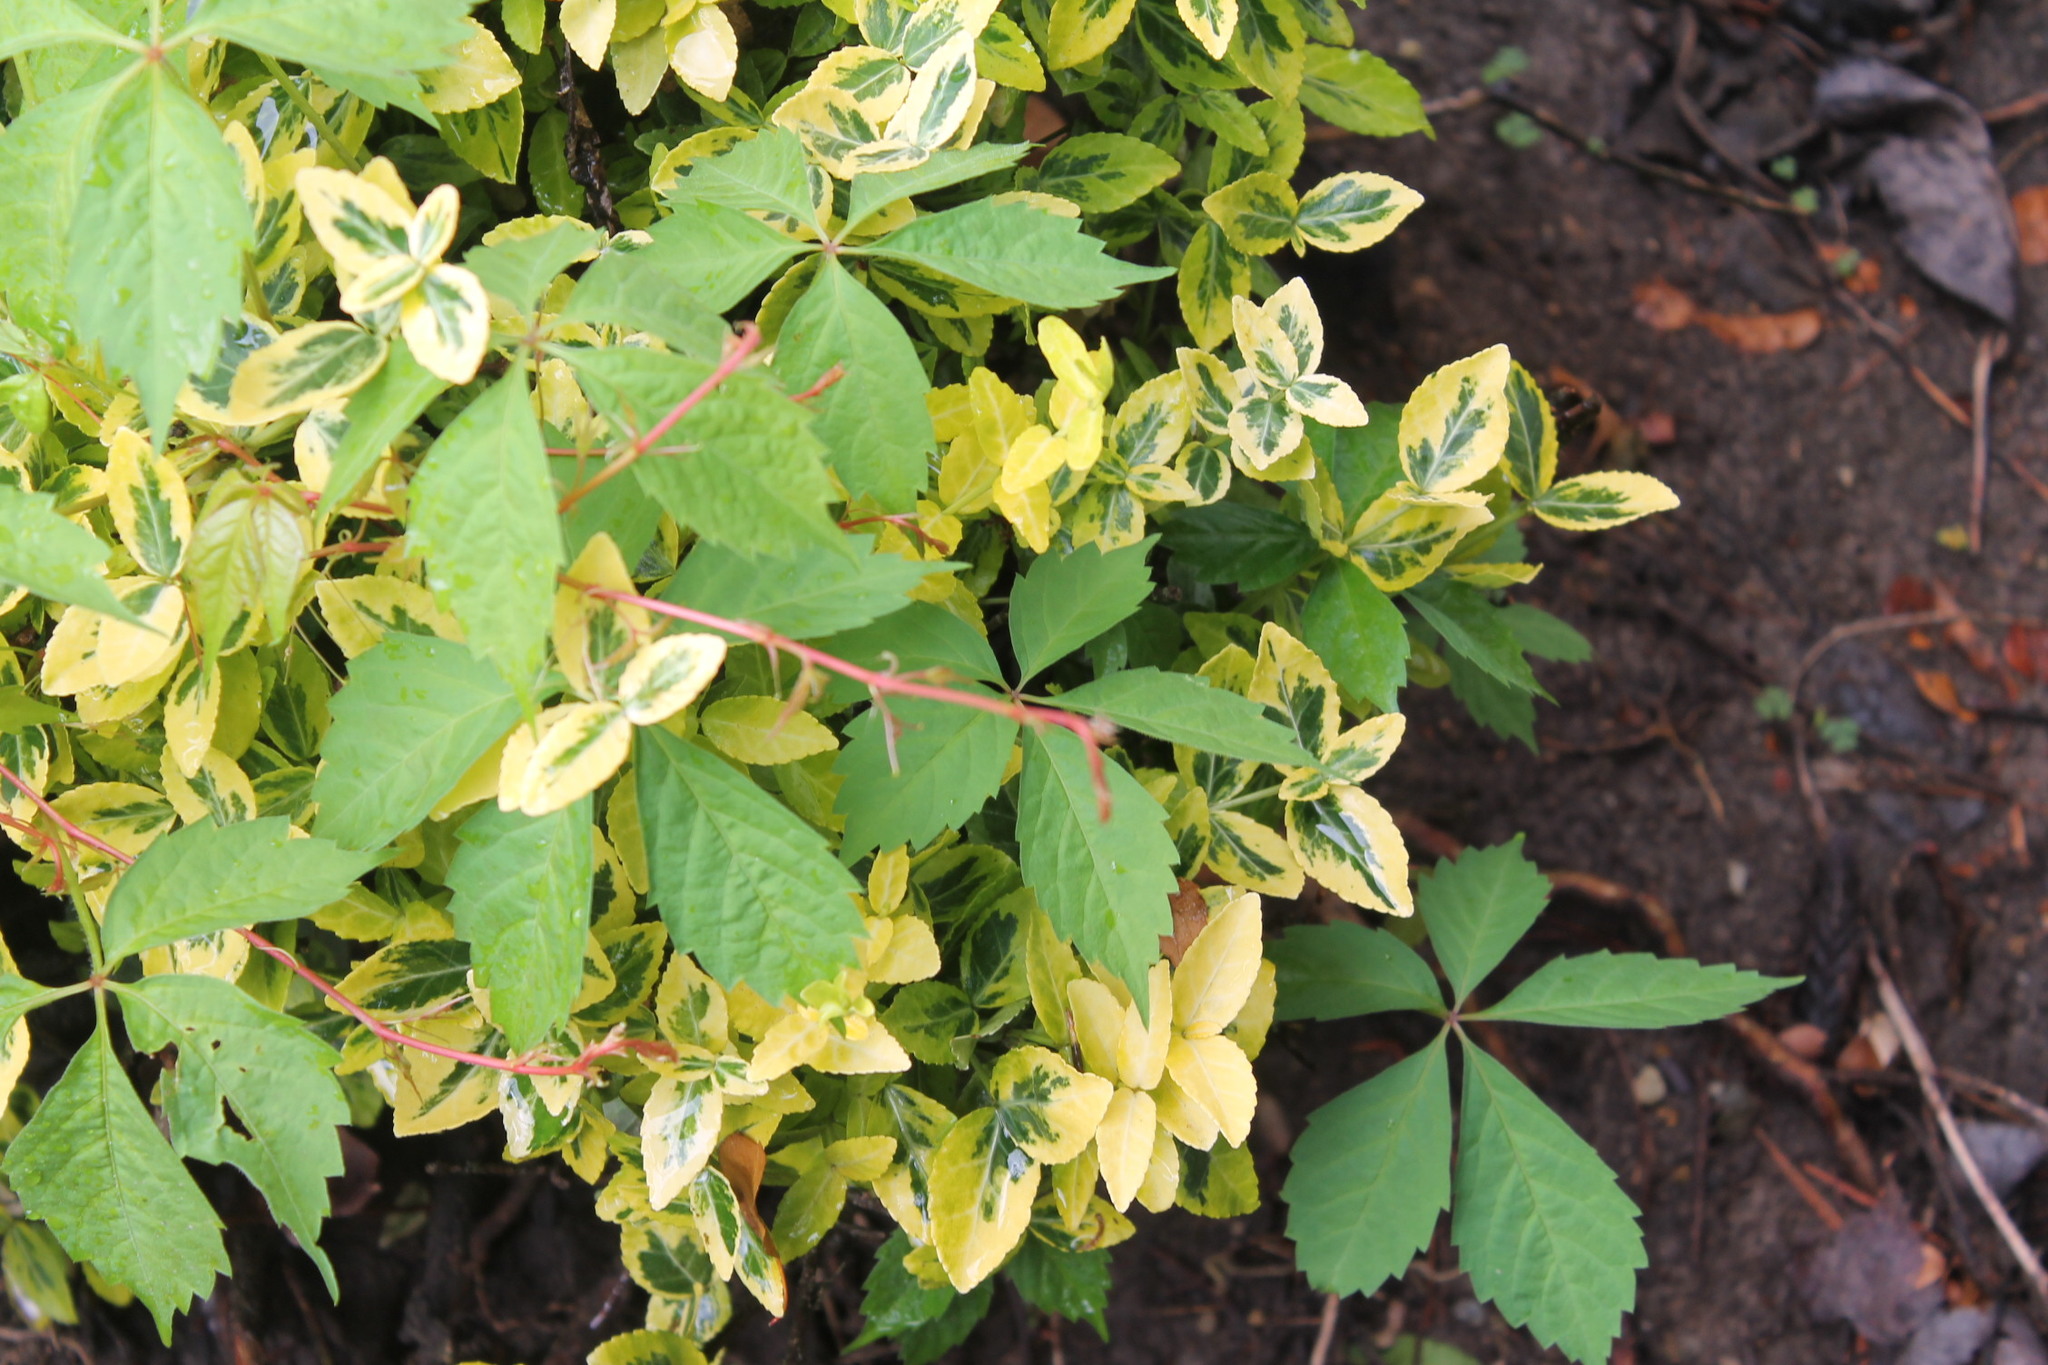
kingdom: Plantae
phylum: Tracheophyta
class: Magnoliopsida
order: Vitales
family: Vitaceae
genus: Parthenocissus
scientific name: Parthenocissus quinquefolia
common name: Virginia-creeper
